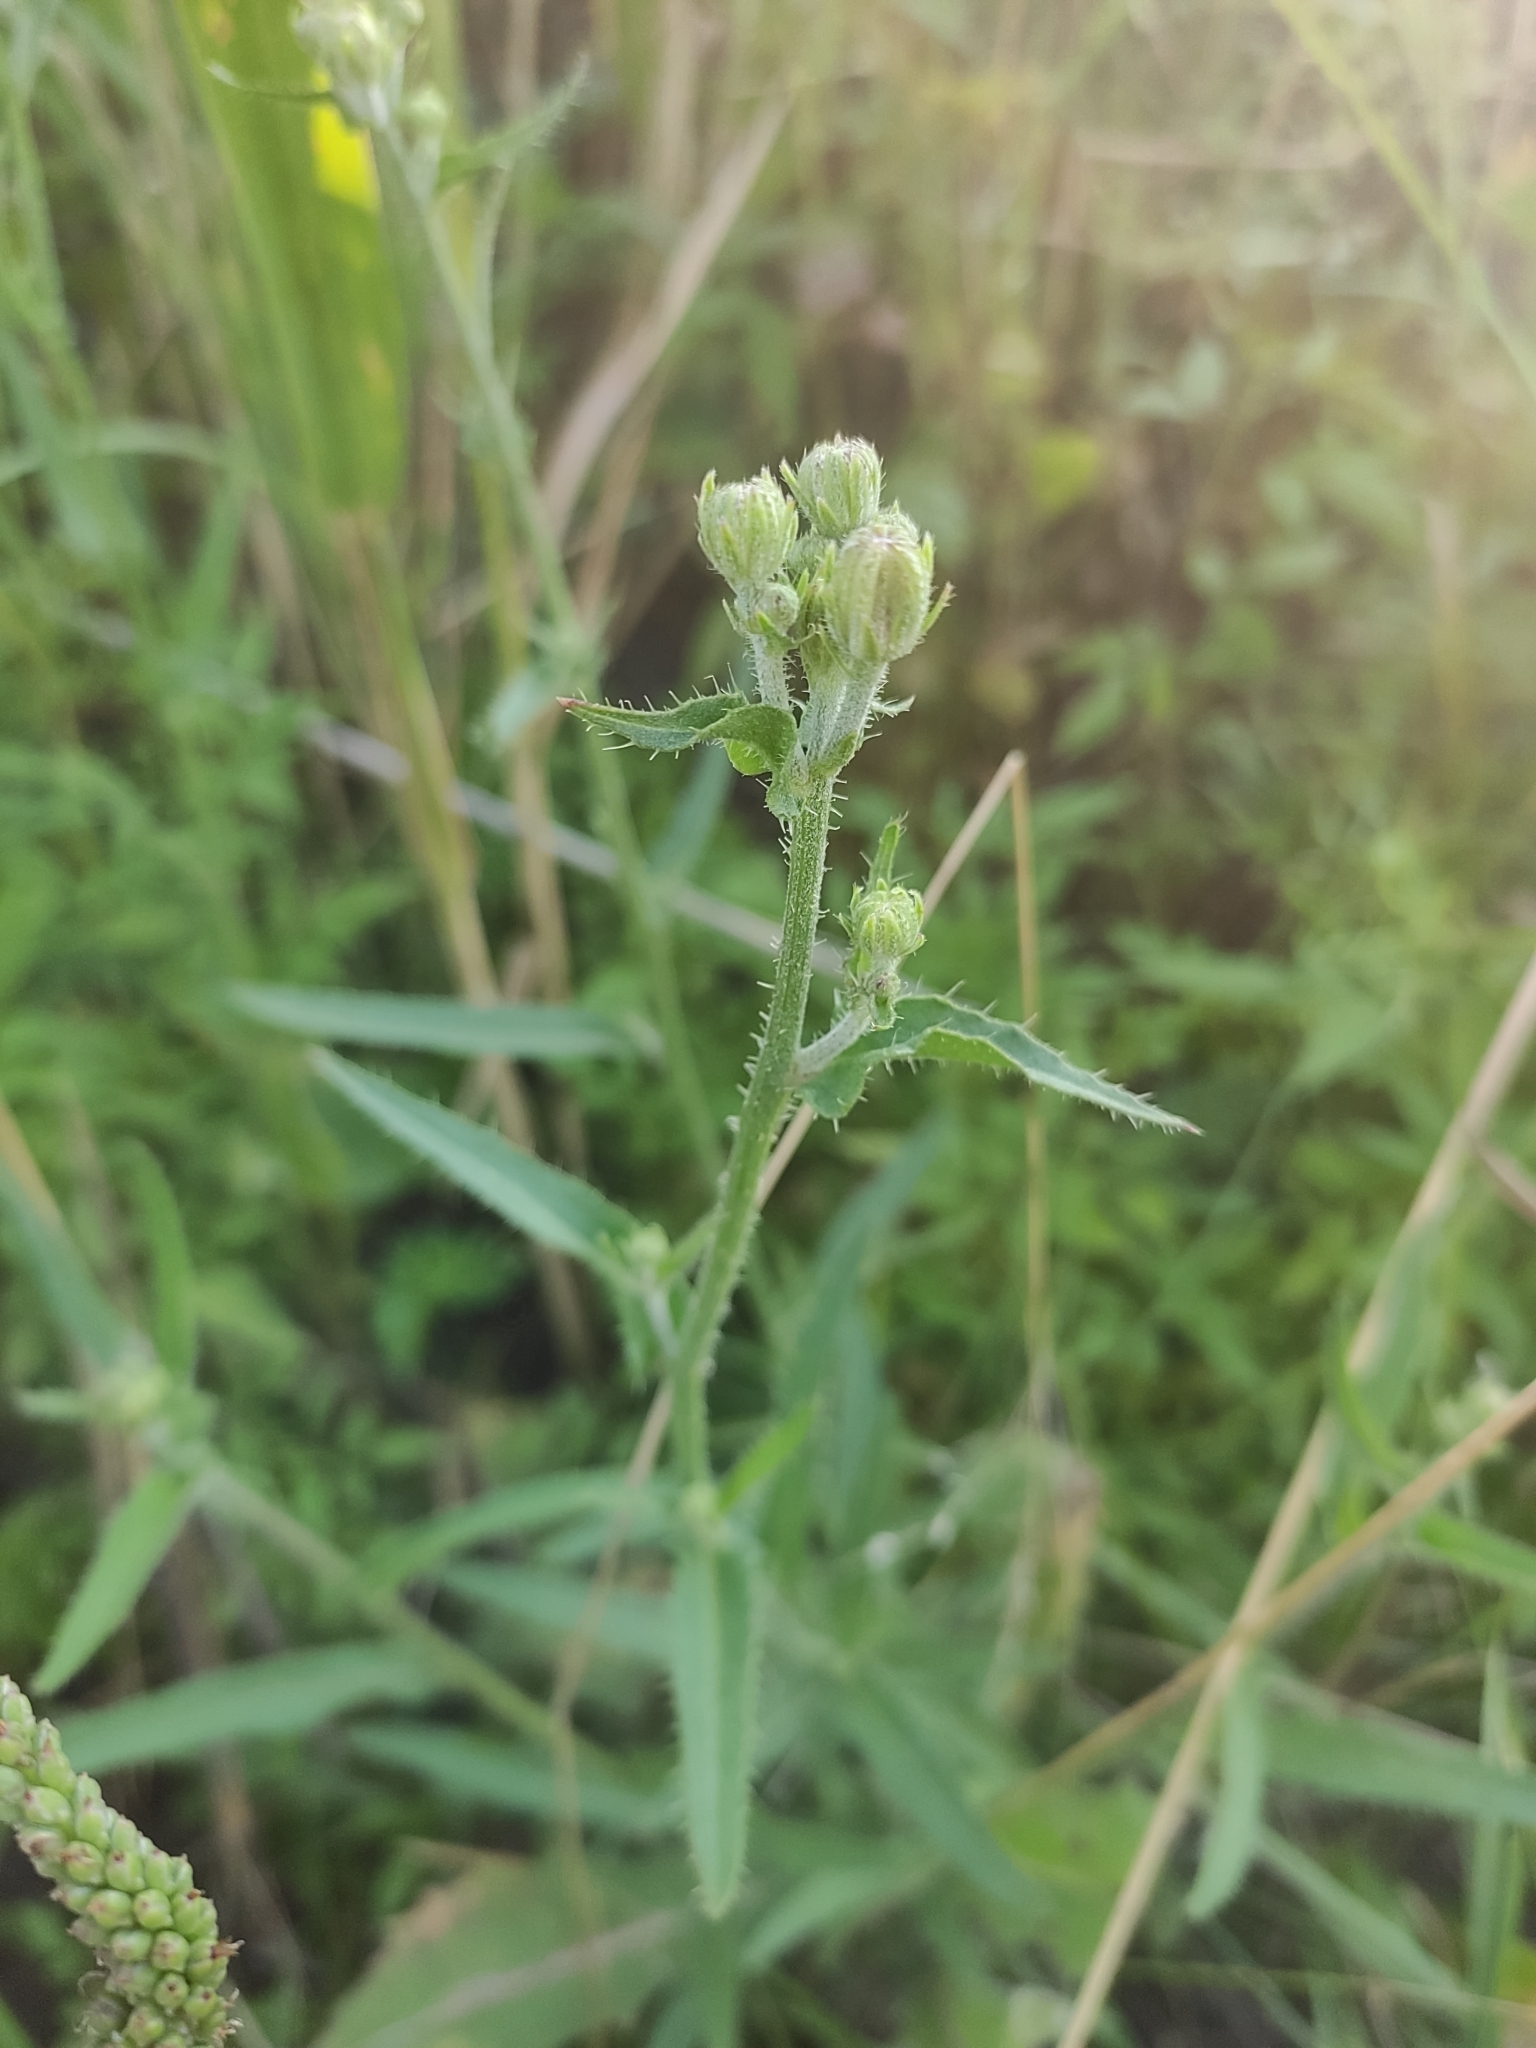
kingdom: Plantae
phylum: Tracheophyta
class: Magnoliopsida
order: Asterales
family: Asteraceae
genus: Picris
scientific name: Picris hieracioides
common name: Hawkweed oxtongue
